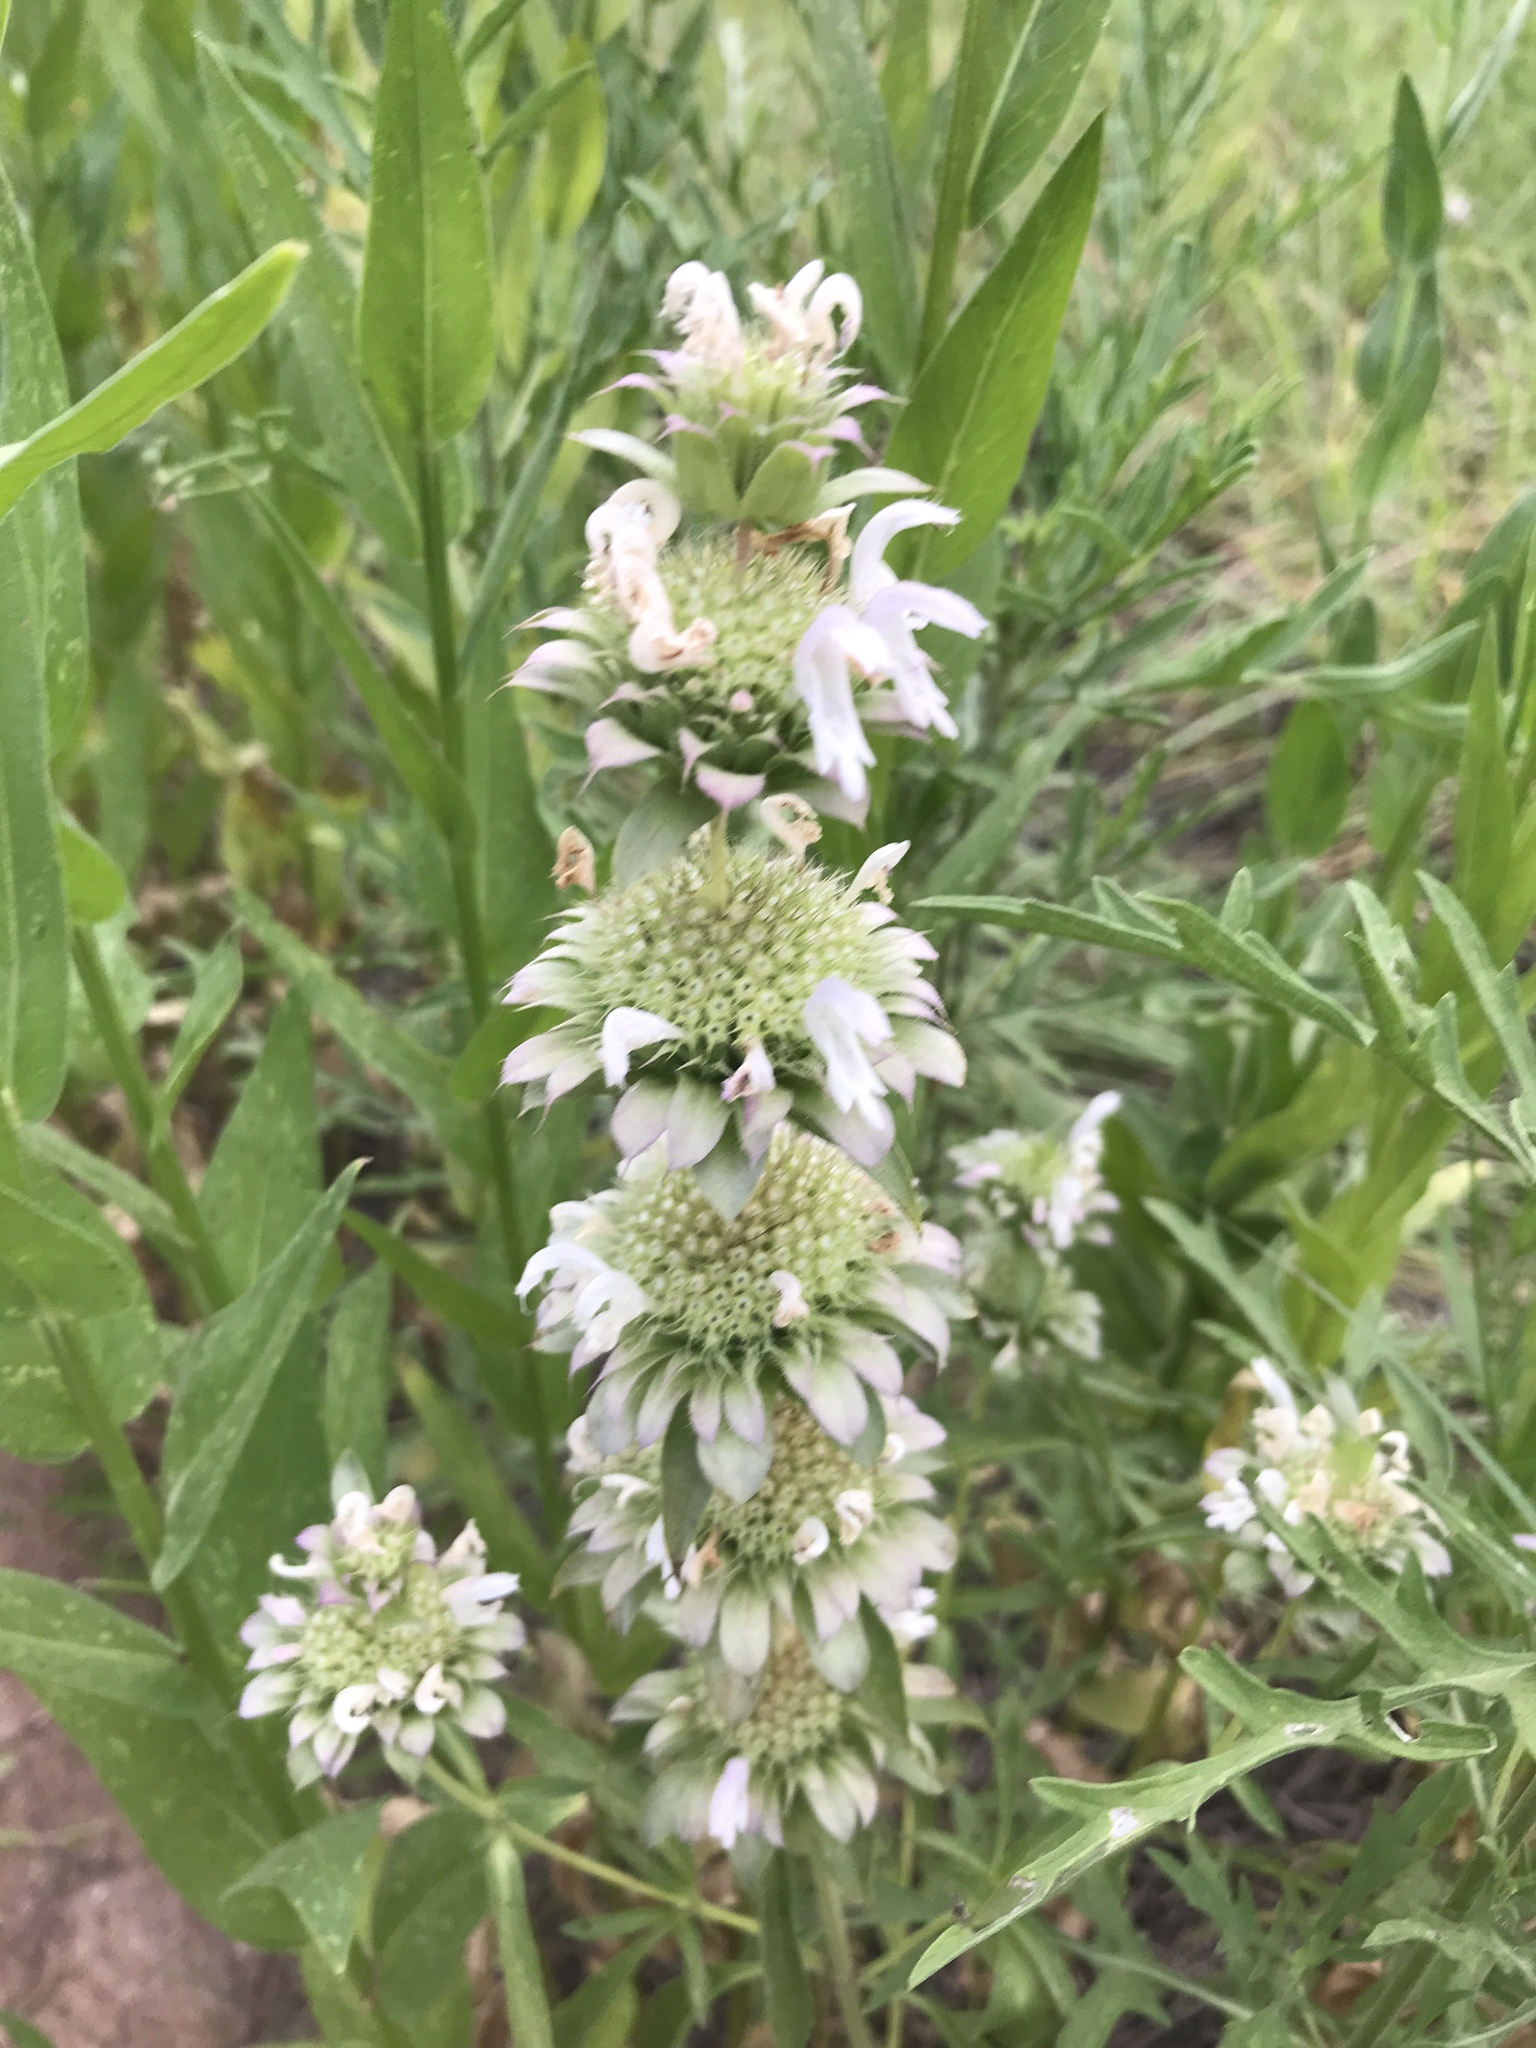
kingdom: Plantae
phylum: Tracheophyta
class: Magnoliopsida
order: Lamiales
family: Lamiaceae
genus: Monarda
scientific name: Monarda citriodora
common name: Lemon beebalm
